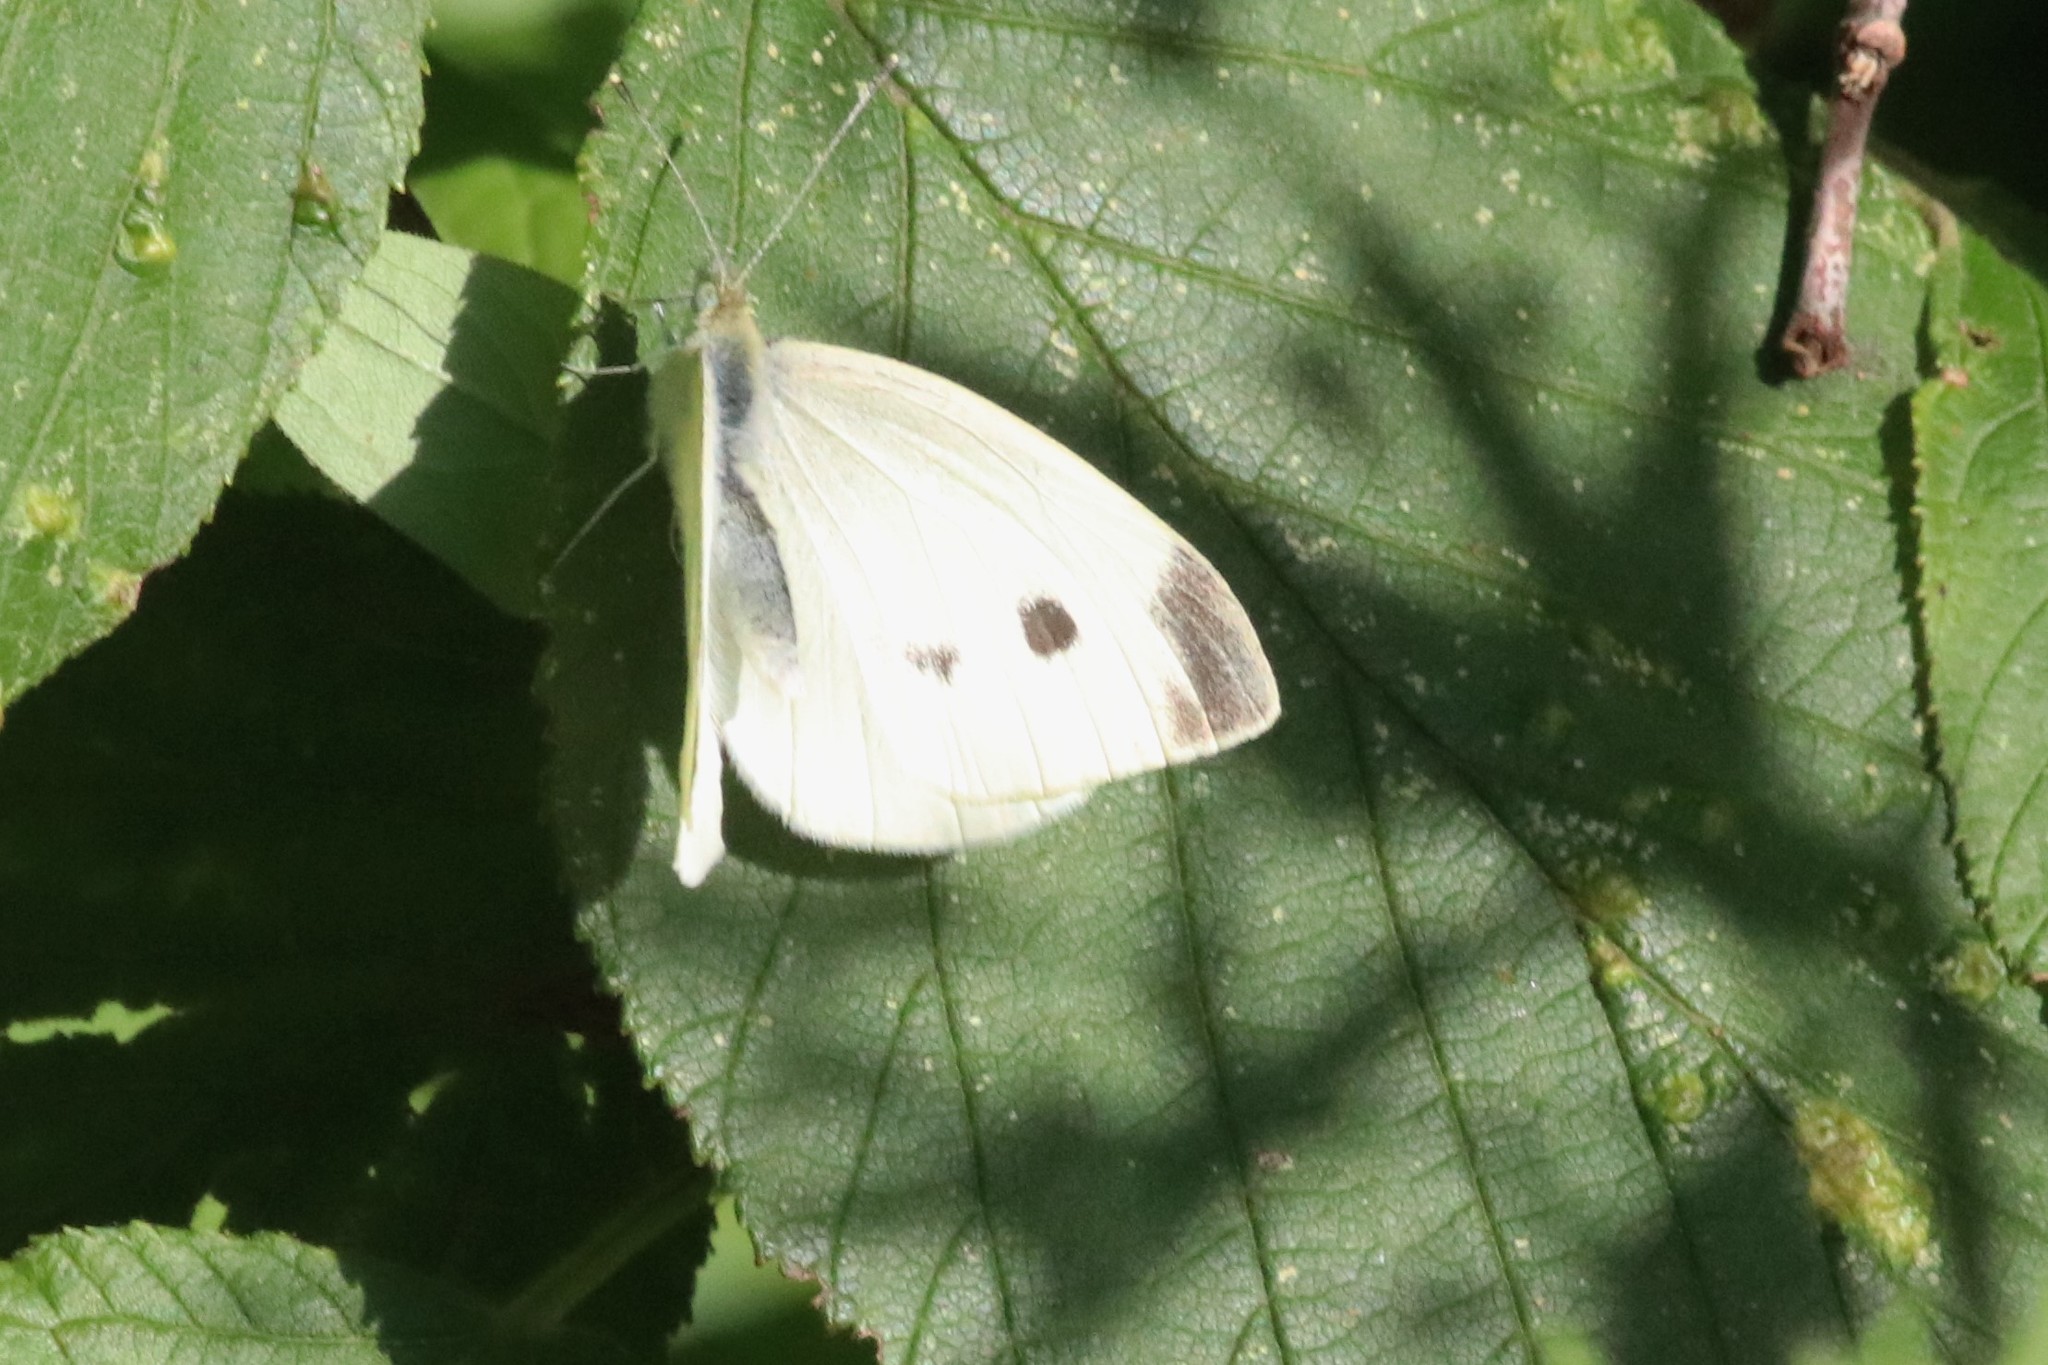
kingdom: Animalia
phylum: Arthropoda
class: Insecta
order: Lepidoptera
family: Pieridae
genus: Pieris
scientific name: Pieris rapae
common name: Small white
